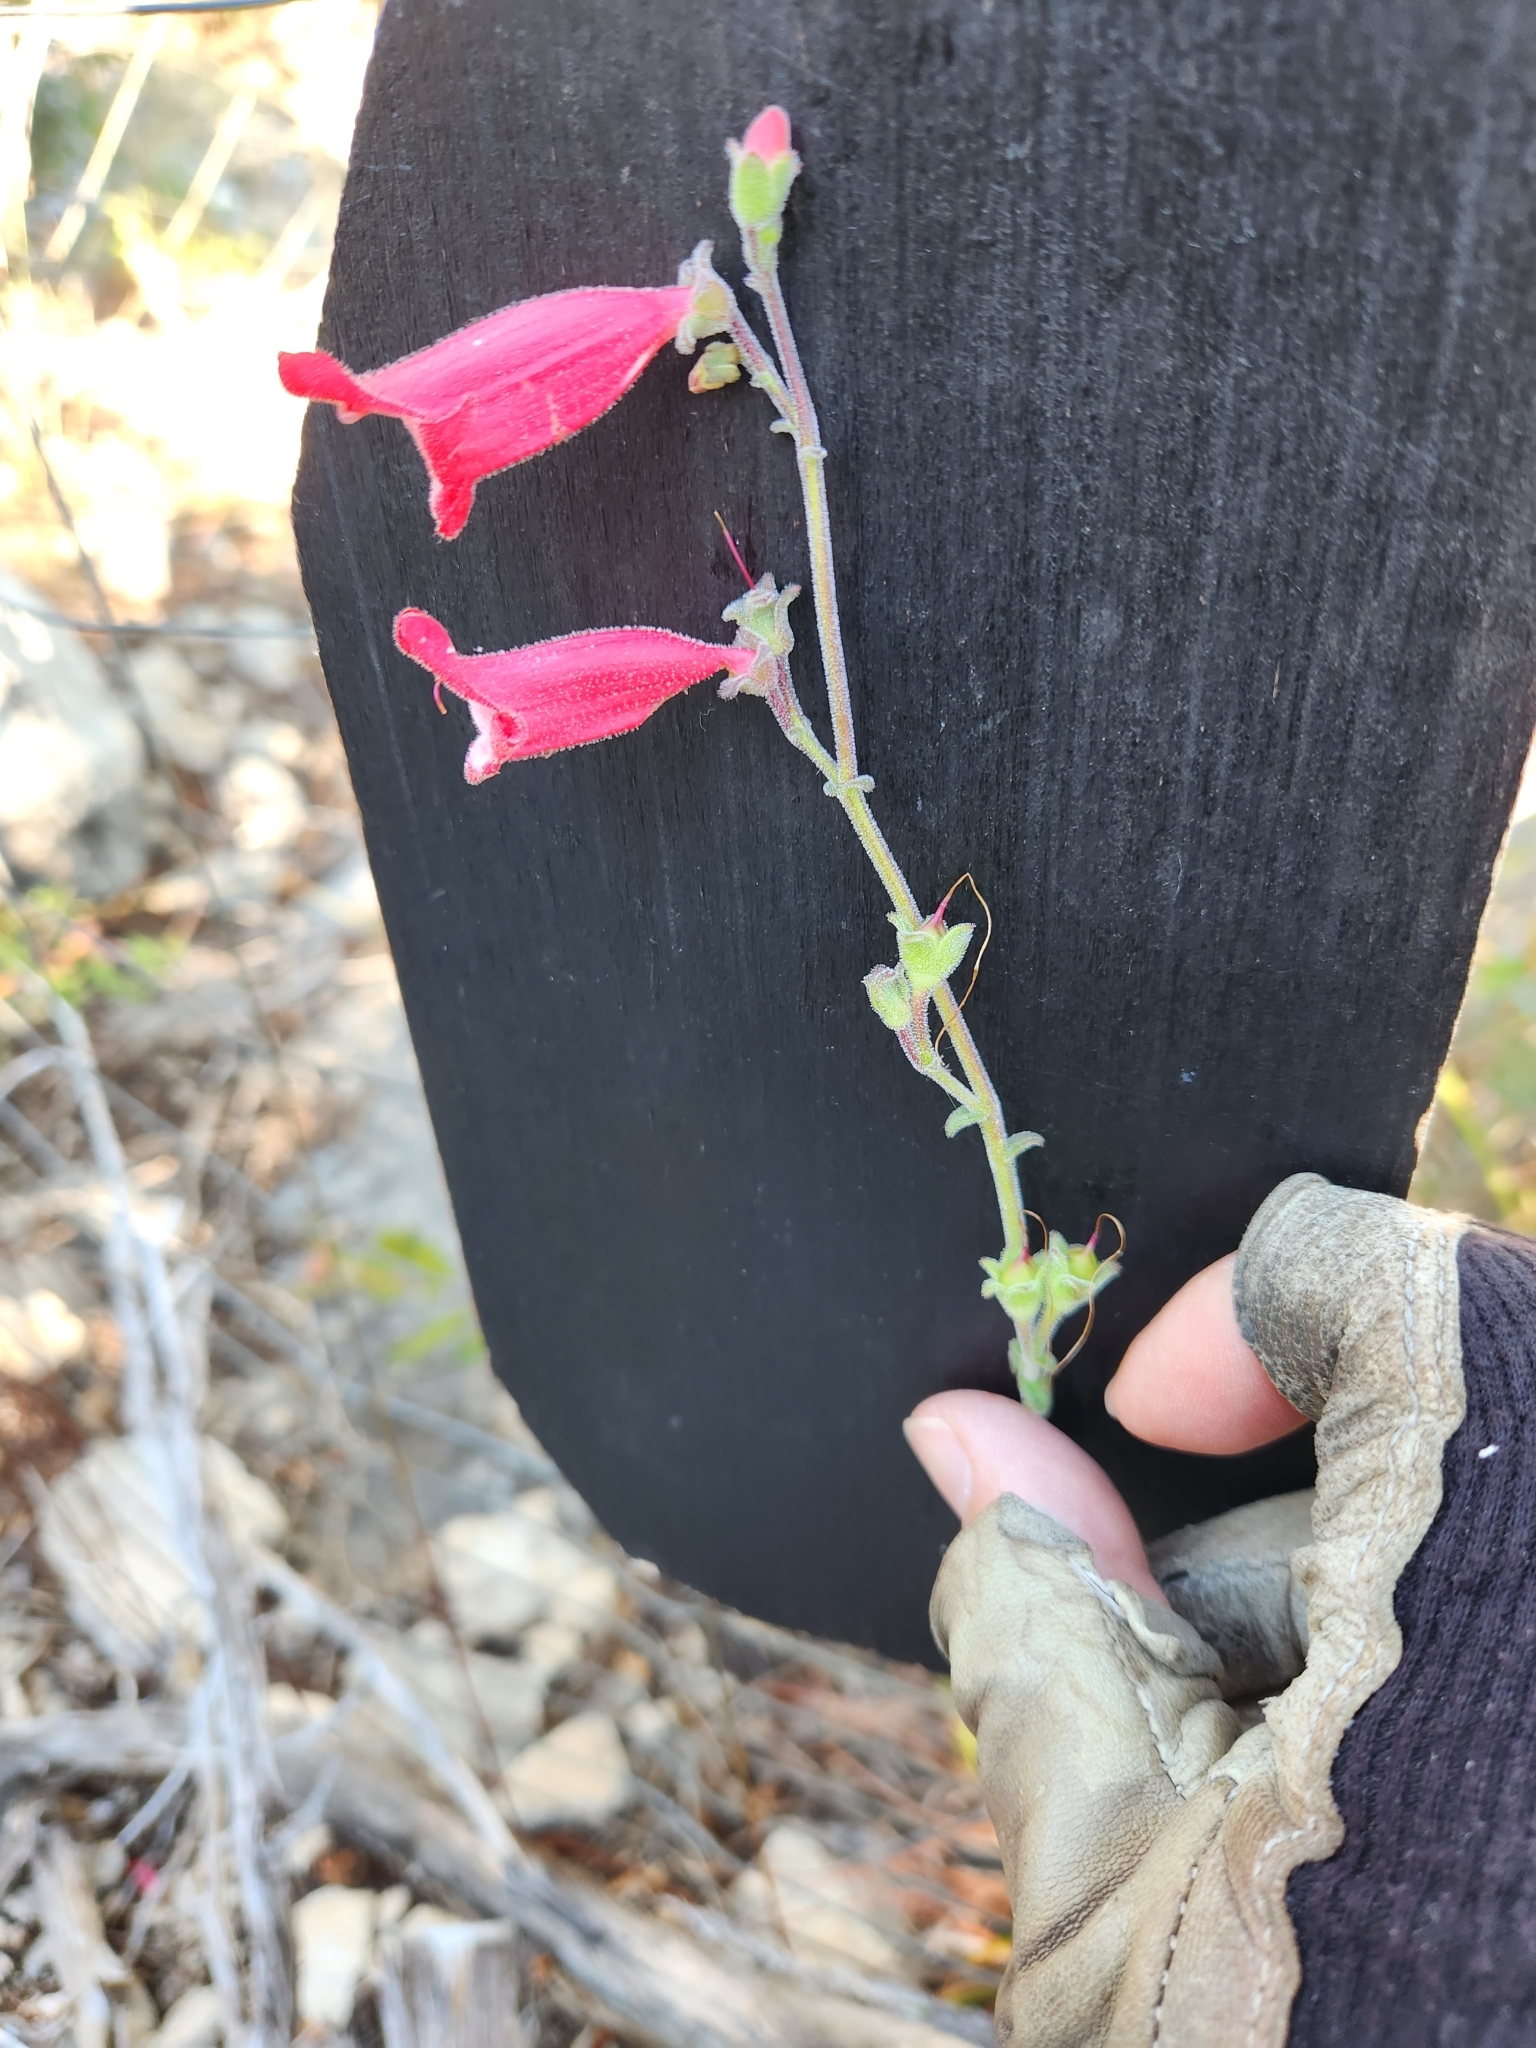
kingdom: Plantae
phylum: Tracheophyta
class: Magnoliopsida
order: Lamiales
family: Plantaginaceae
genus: Penstemon
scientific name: Penstemon baccharifolius
